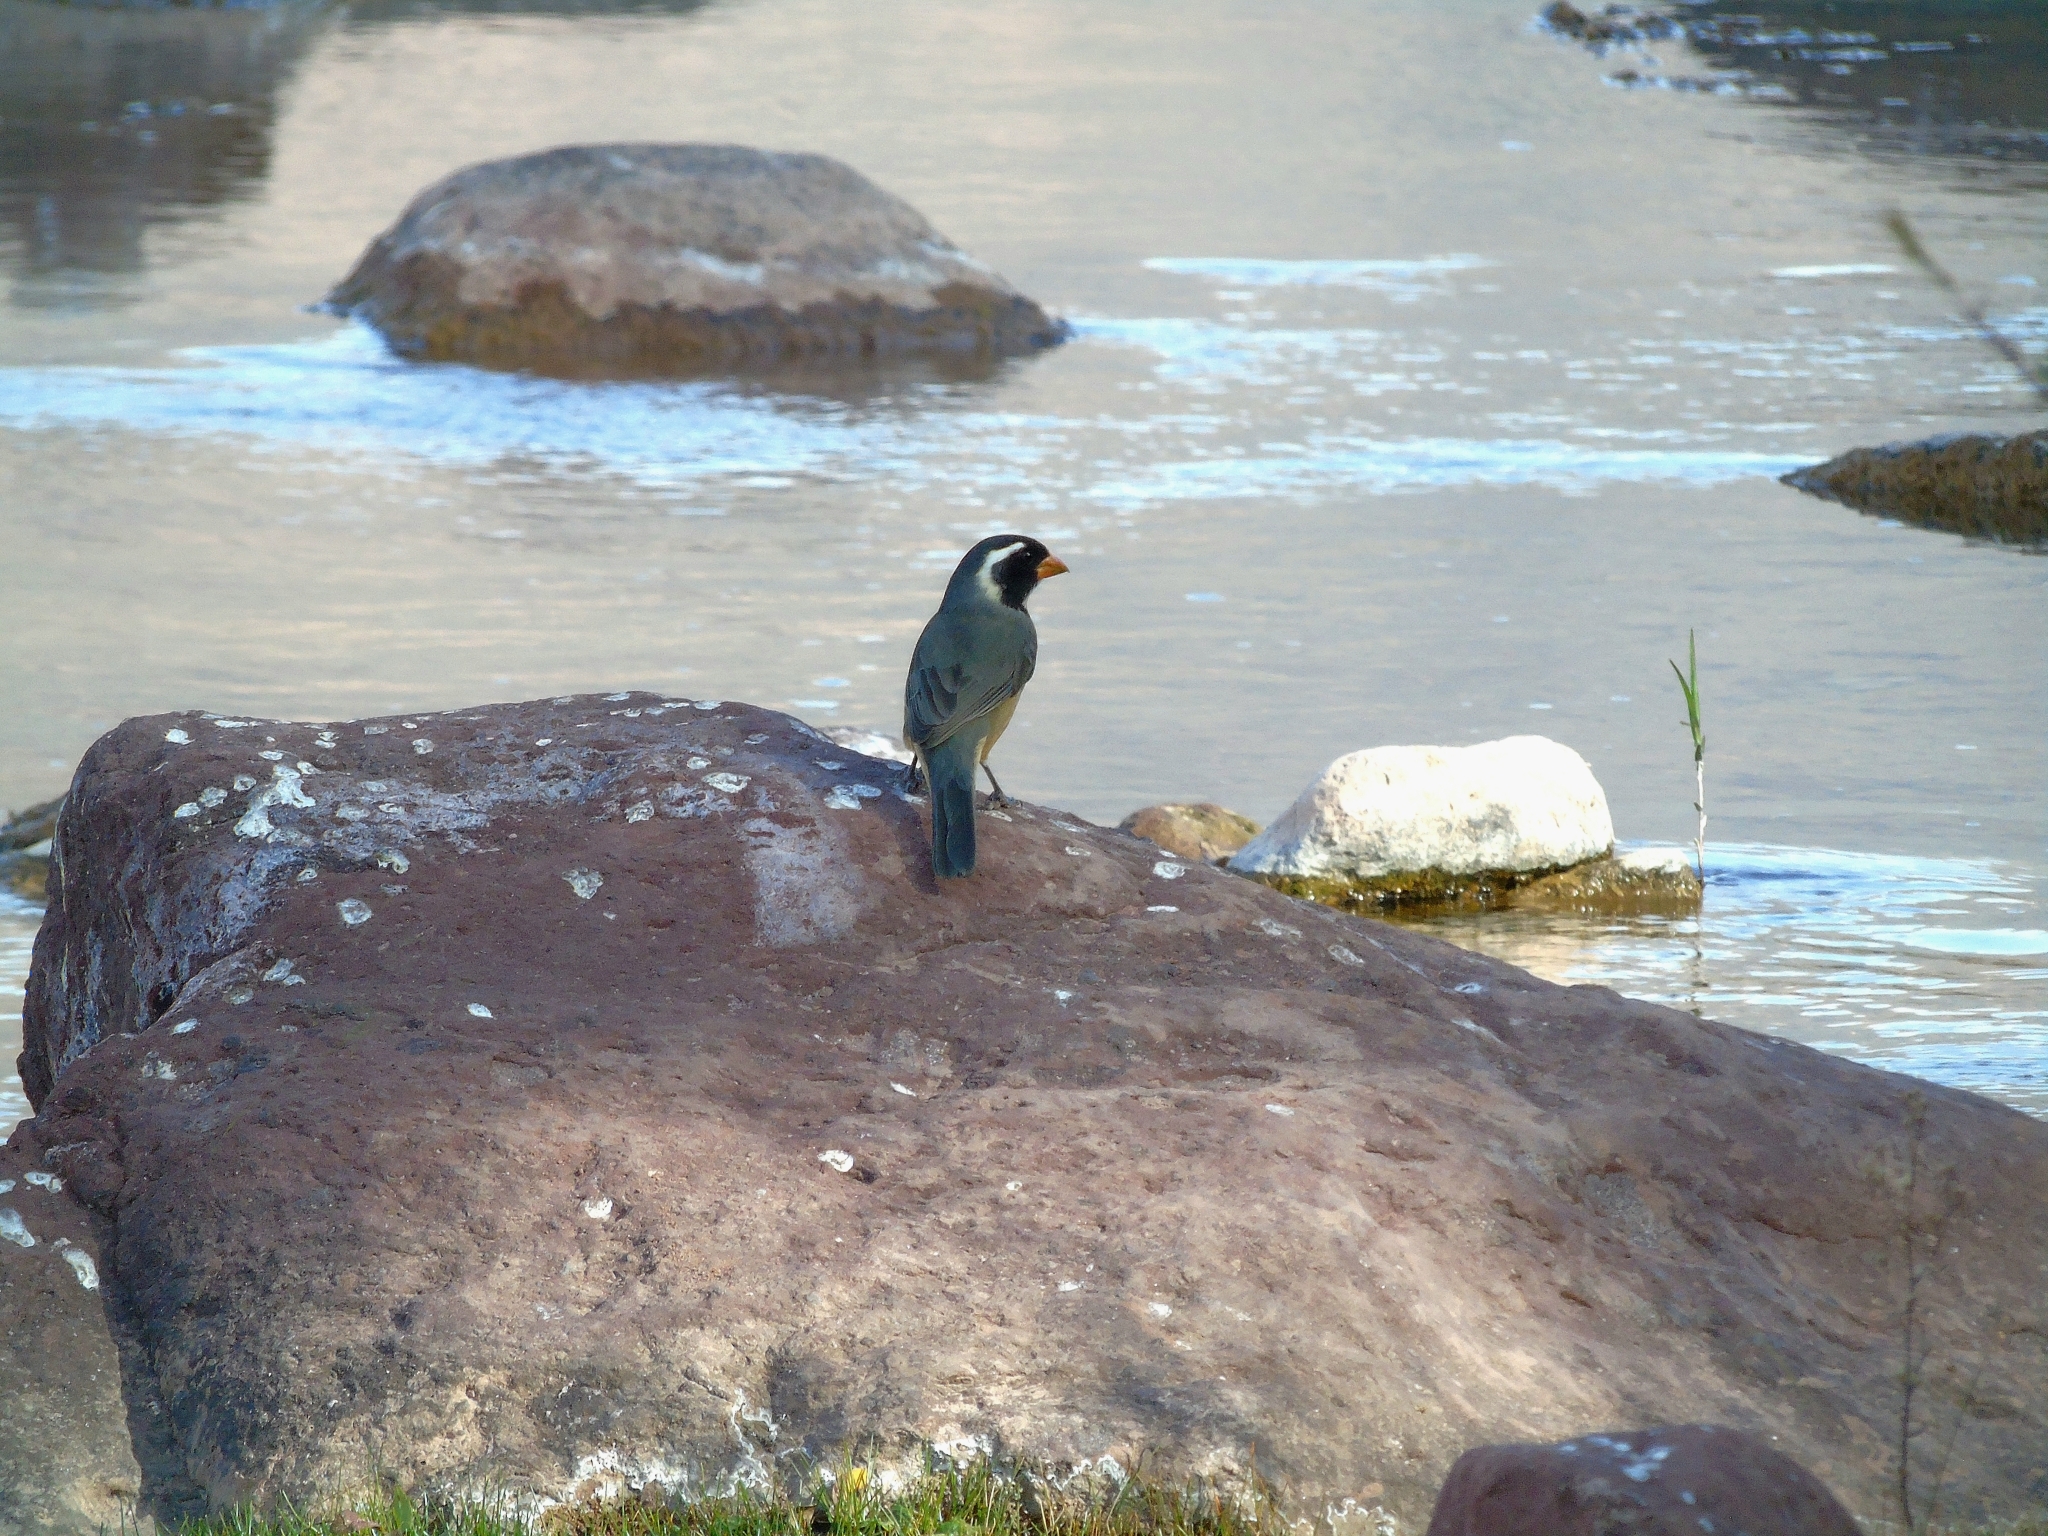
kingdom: Animalia
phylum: Chordata
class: Aves
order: Passeriformes
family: Thraupidae
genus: Saltator
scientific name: Saltator aurantiirostris
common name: Golden-billed saltator
